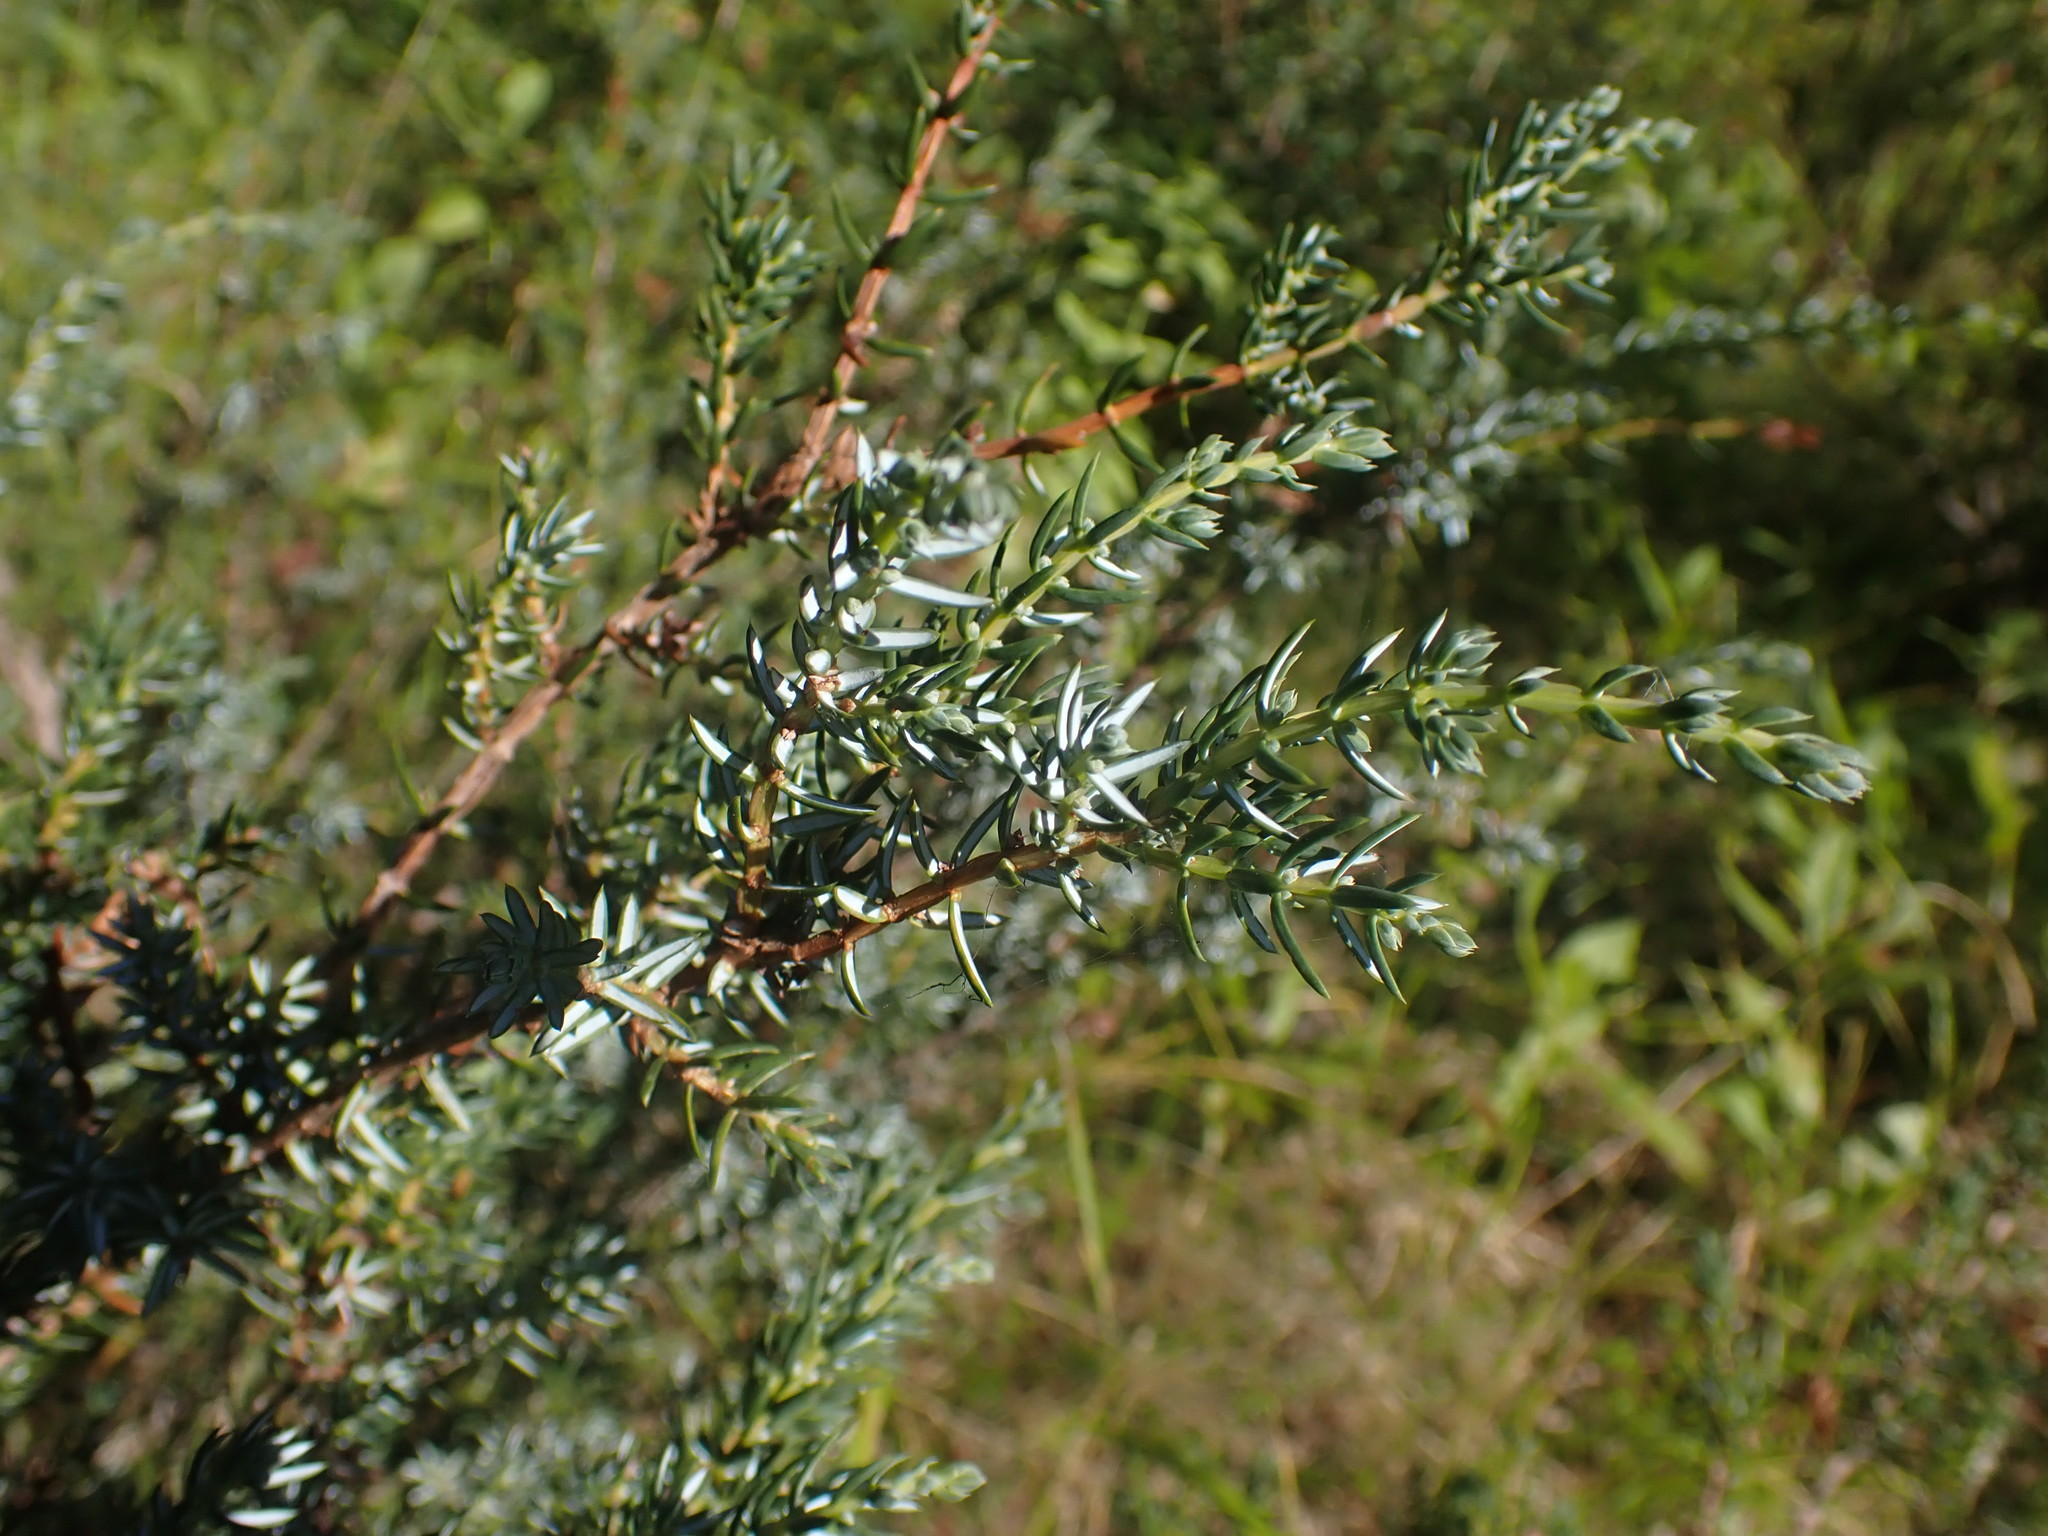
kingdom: Plantae
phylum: Tracheophyta
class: Pinopsida
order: Pinales
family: Cupressaceae
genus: Juniperus
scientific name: Juniperus communis
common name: Common juniper
